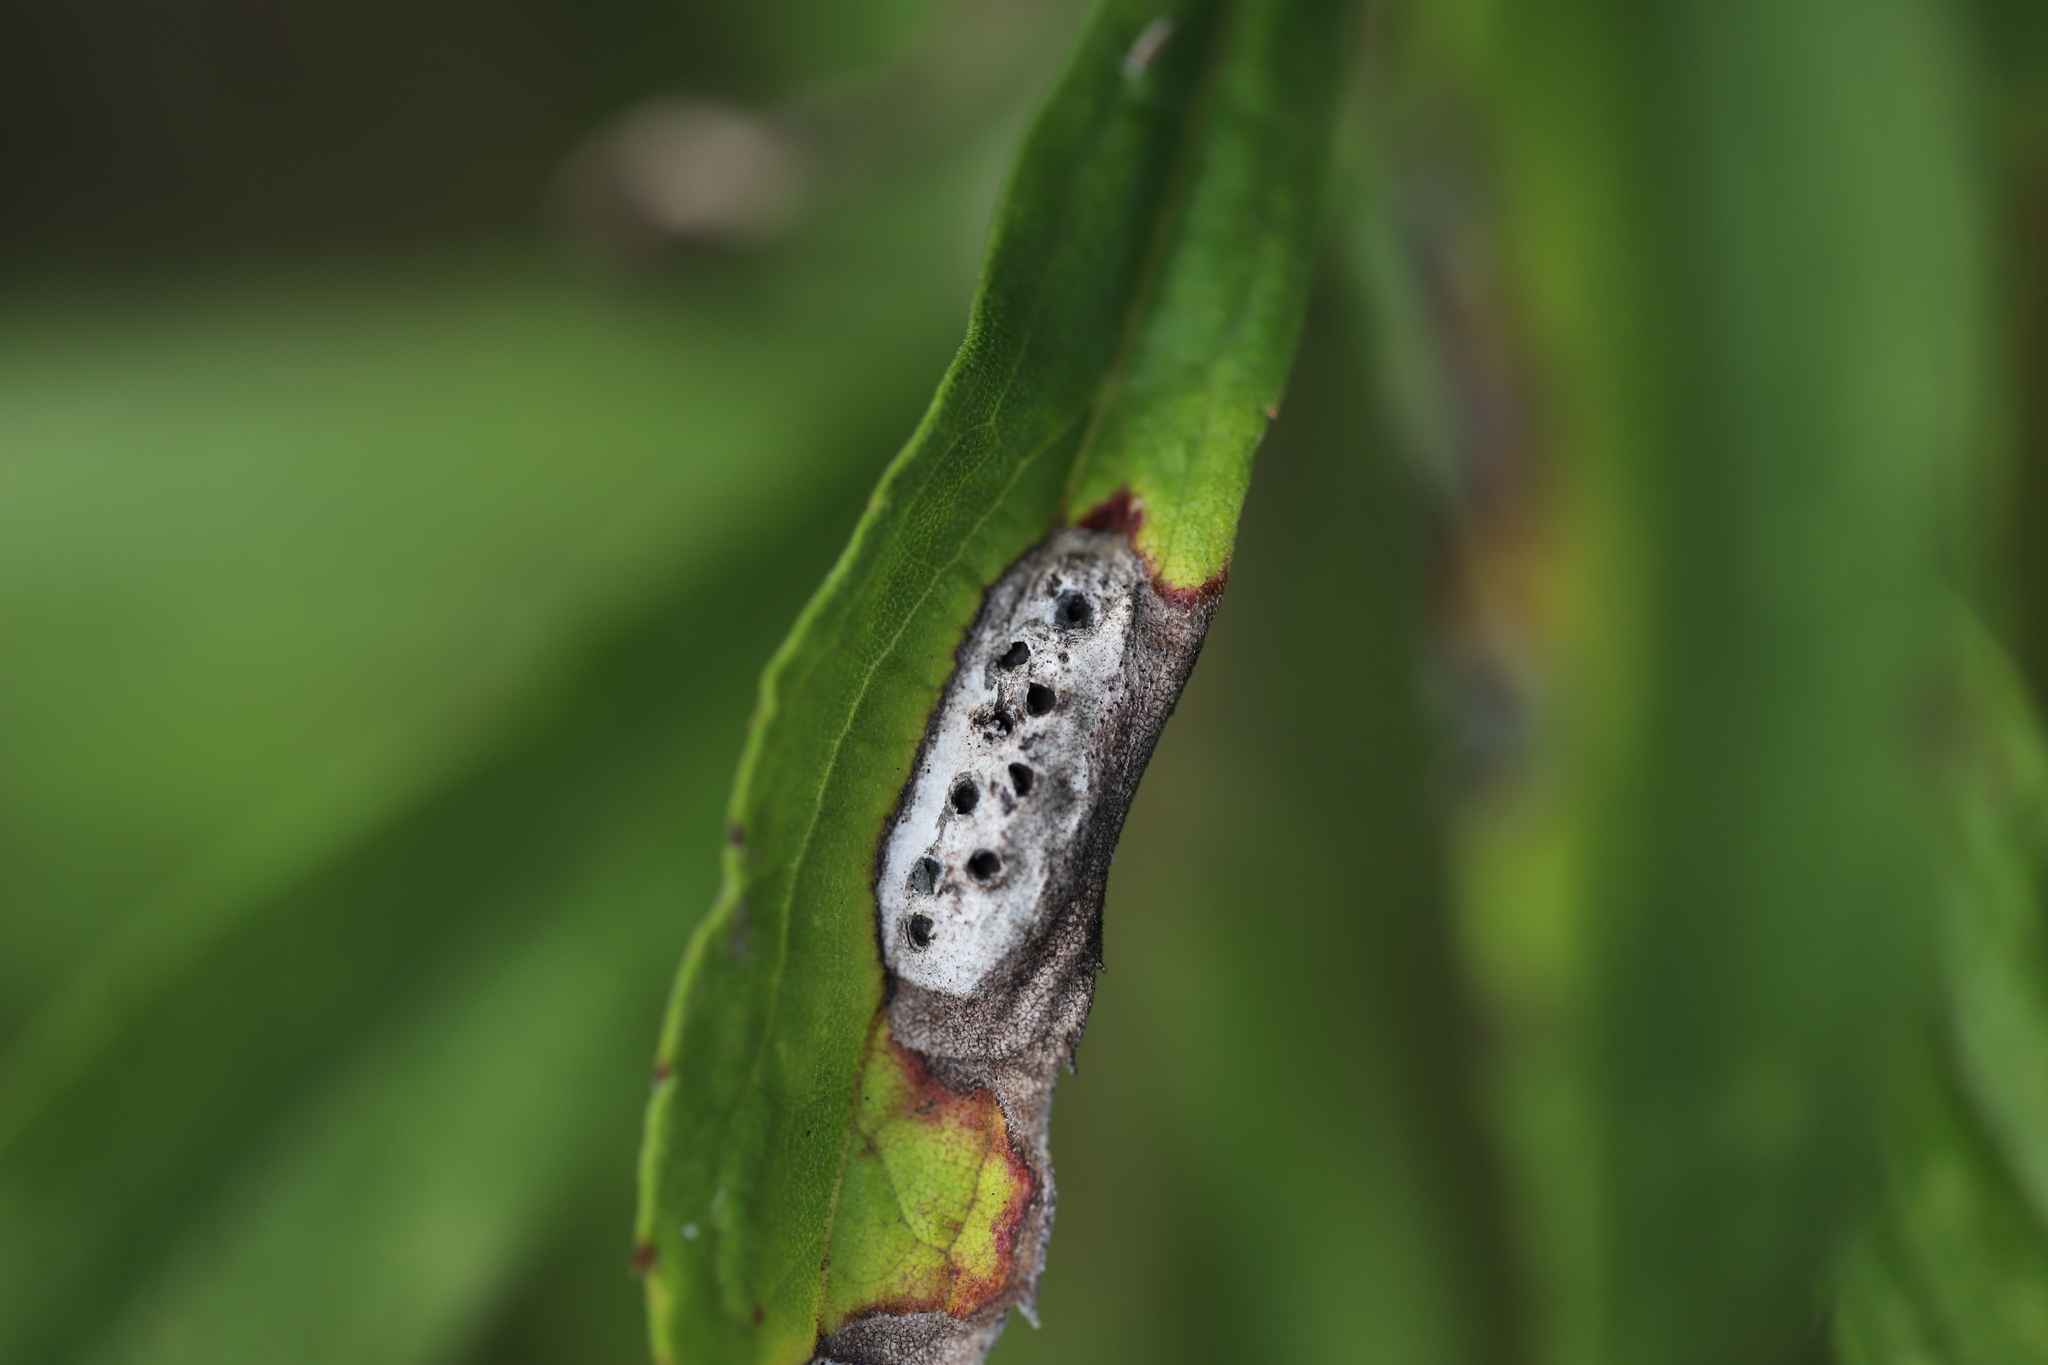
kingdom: Animalia
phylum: Arthropoda
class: Insecta
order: Diptera
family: Cecidomyiidae
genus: Asteromyia
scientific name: Asteromyia carbonifera
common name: Carbonifera goldenrod gall midge
